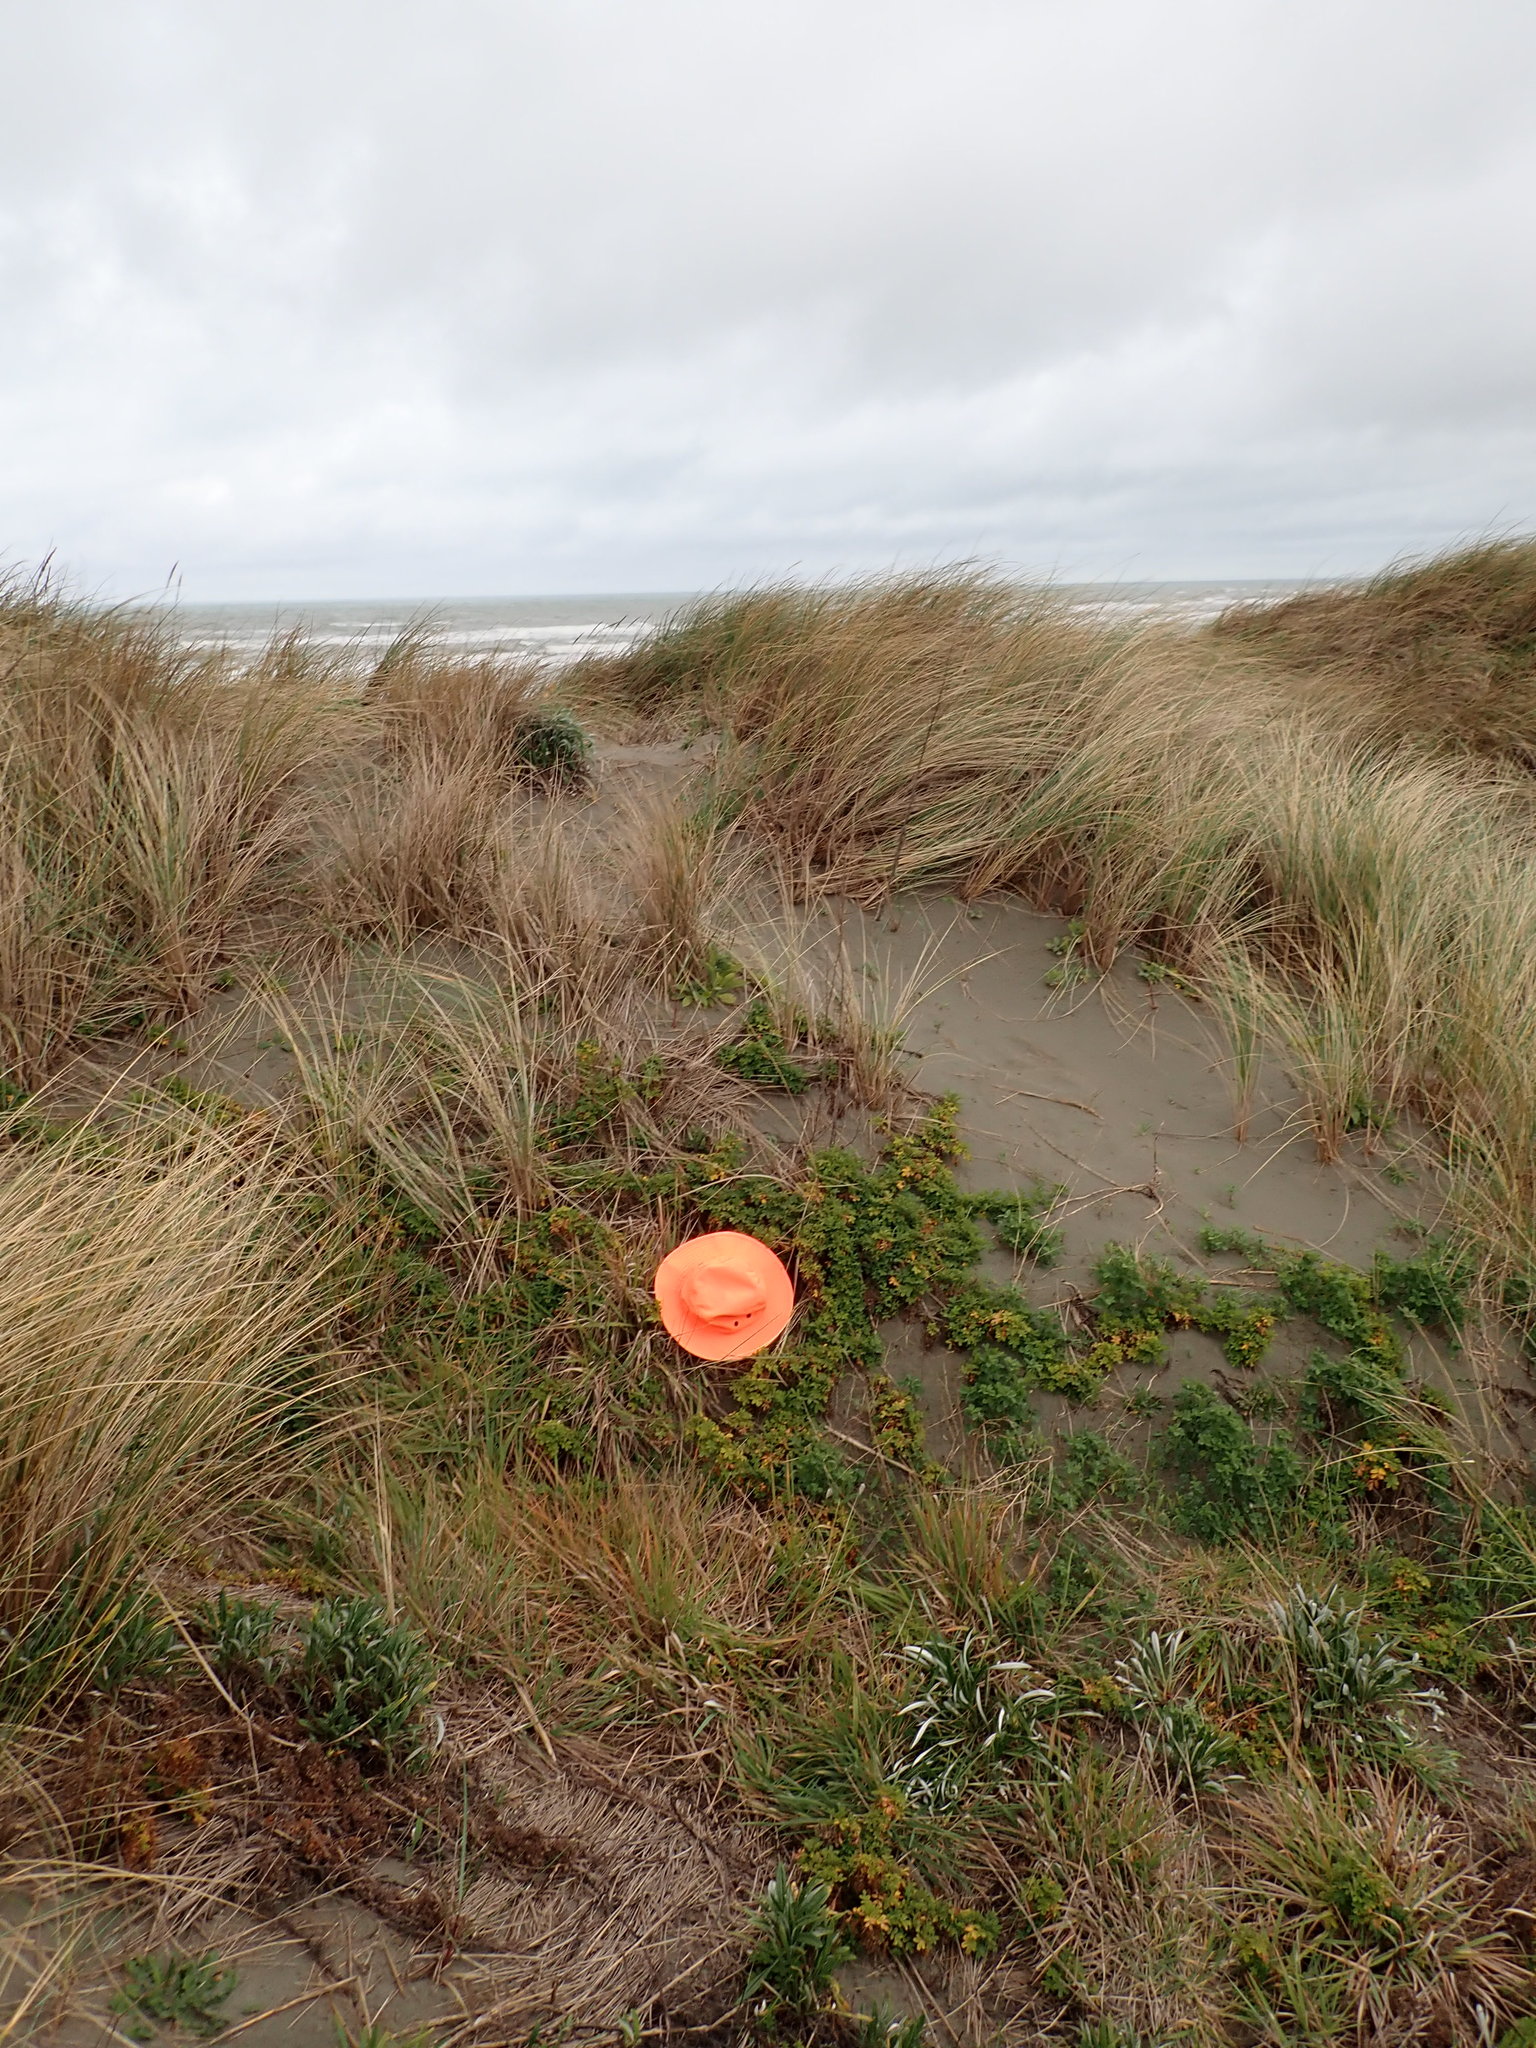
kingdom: Plantae
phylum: Tracheophyta
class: Magnoliopsida
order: Rosales
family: Rosaceae
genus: Acaena
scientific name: Acaena novae-zelandiae
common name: Pirri-pirri-bur
